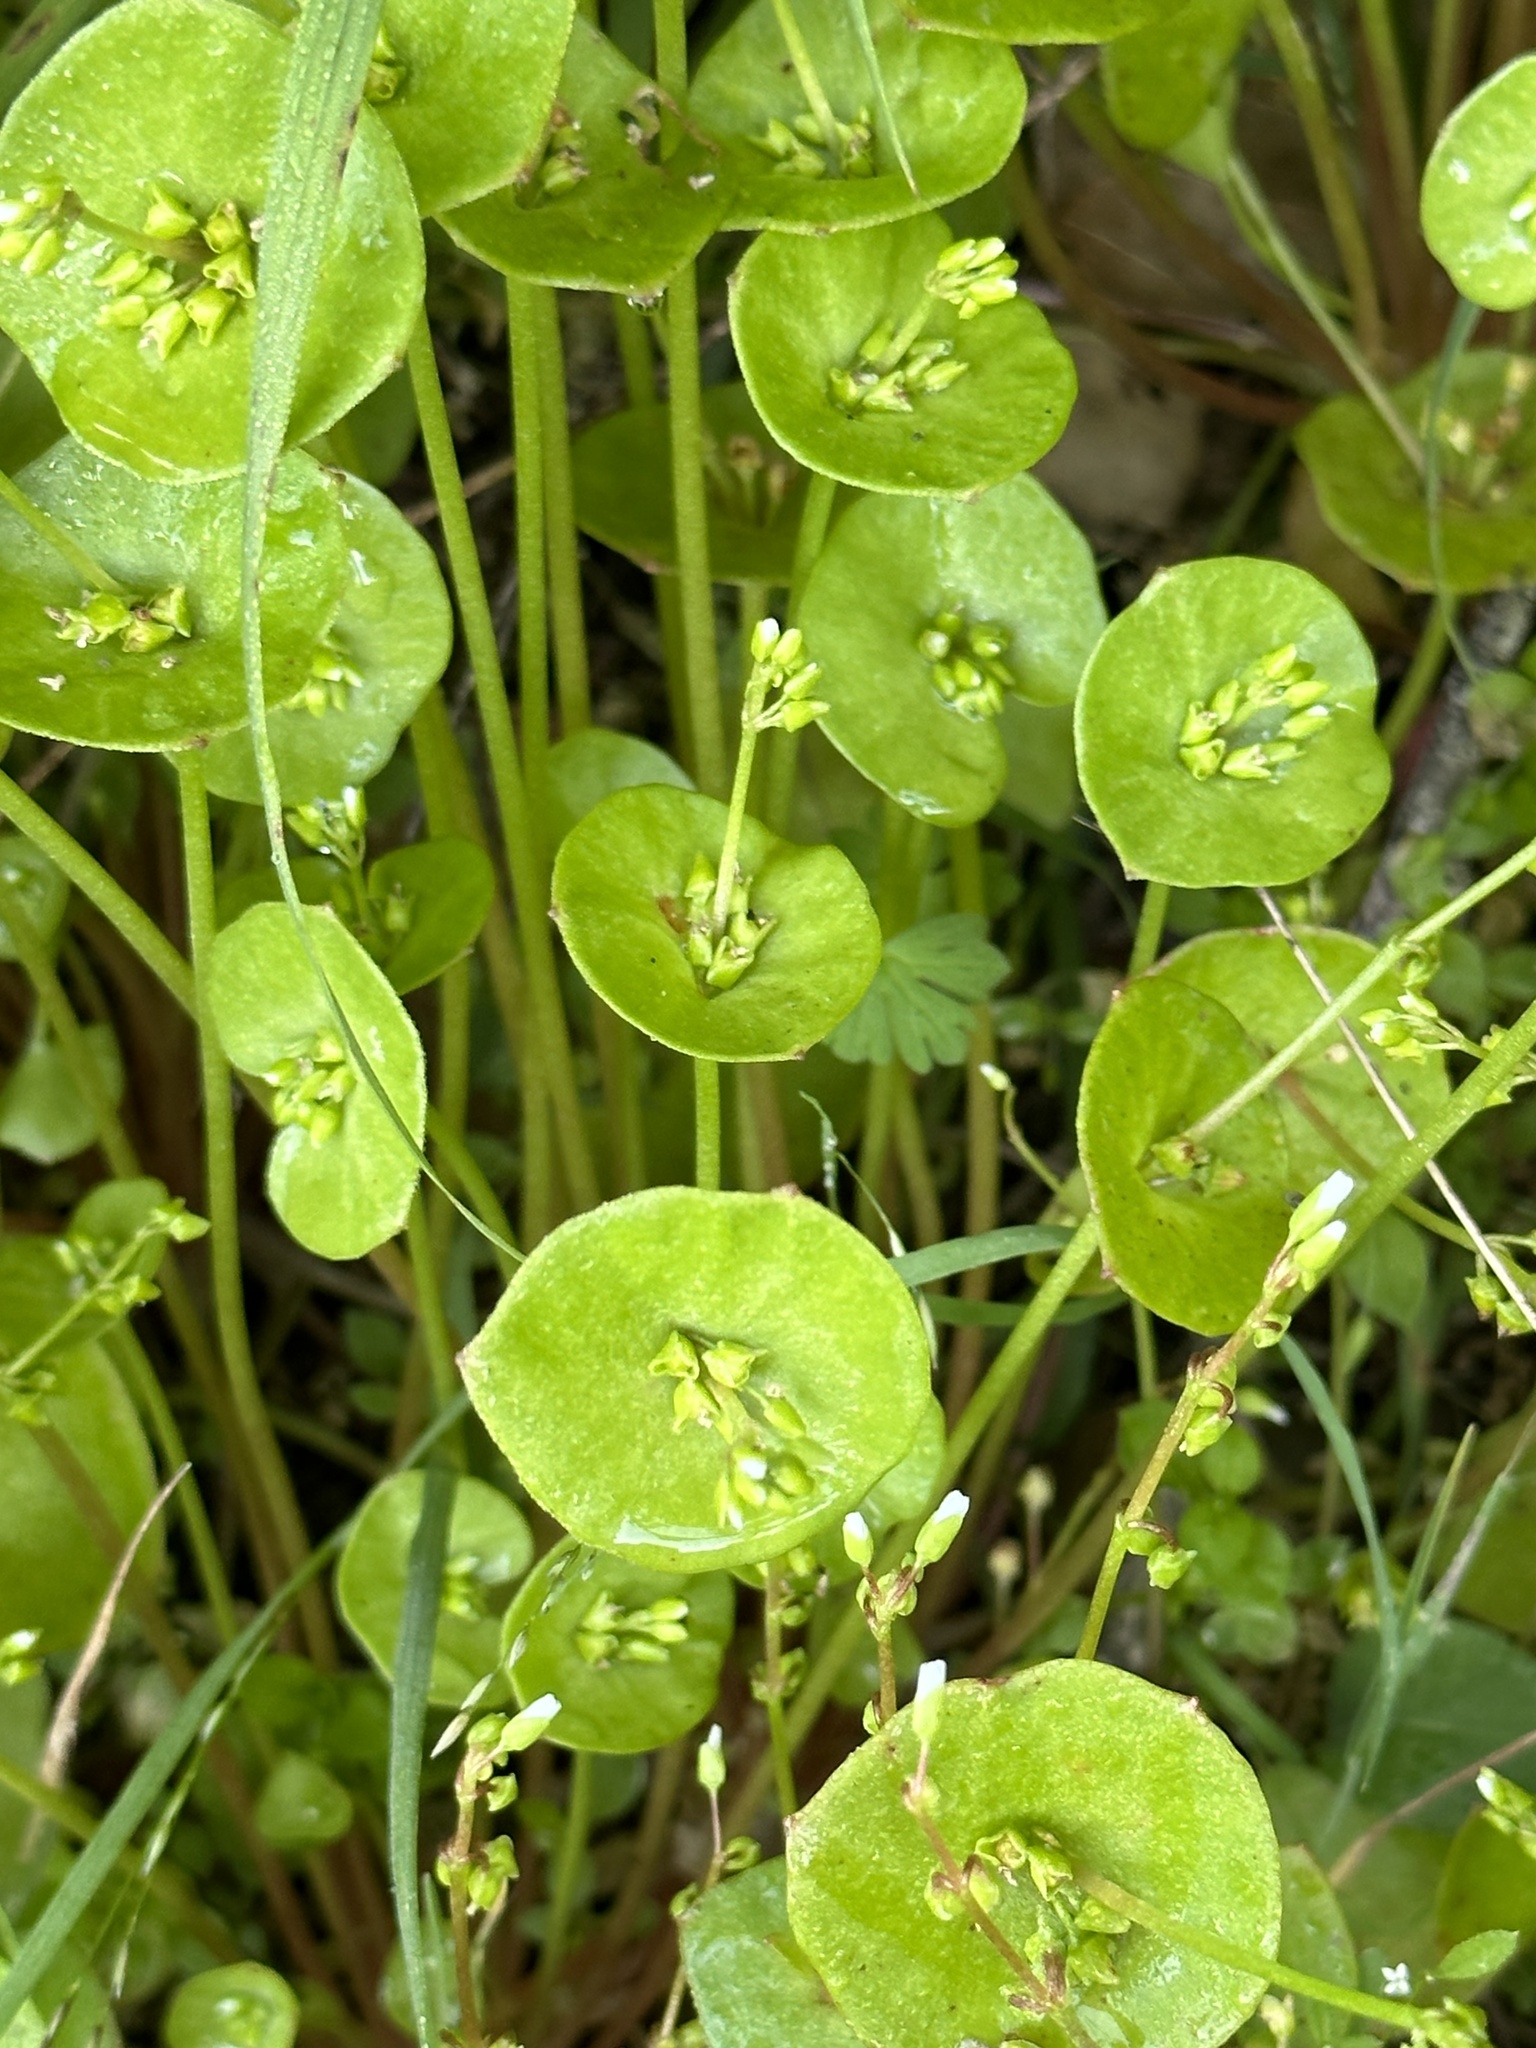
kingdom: Plantae
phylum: Tracheophyta
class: Magnoliopsida
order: Caryophyllales
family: Montiaceae
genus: Claytonia
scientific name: Claytonia perfoliata
